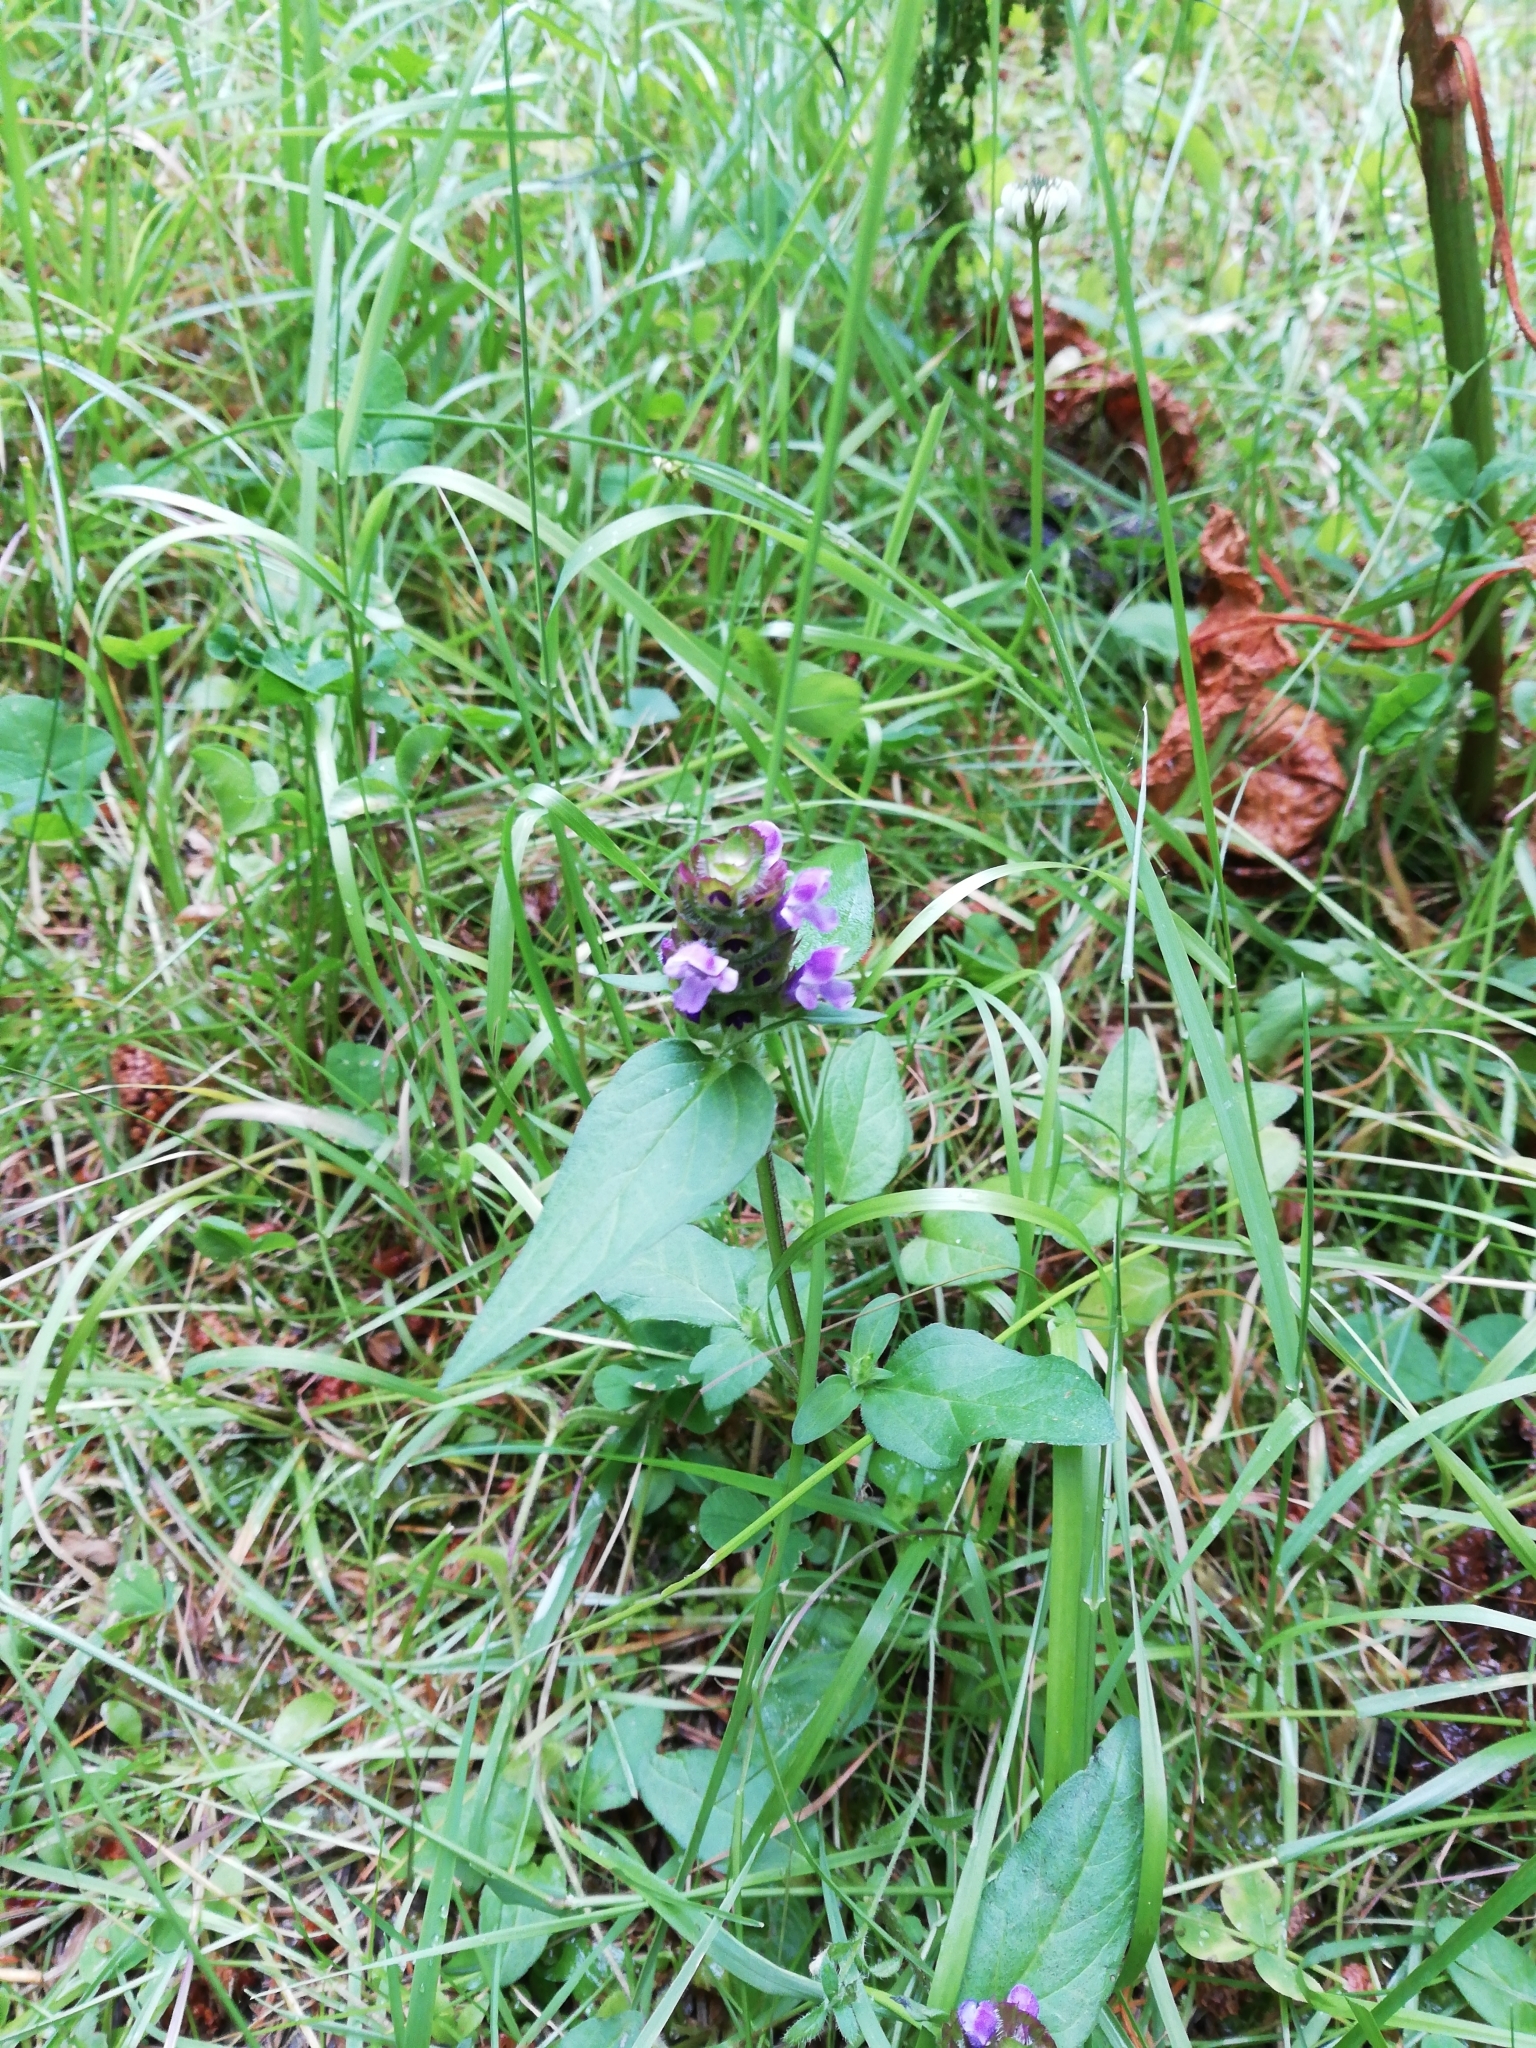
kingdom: Plantae
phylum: Tracheophyta
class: Magnoliopsida
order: Lamiales
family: Lamiaceae
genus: Prunella
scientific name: Prunella vulgaris
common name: Heal-all
